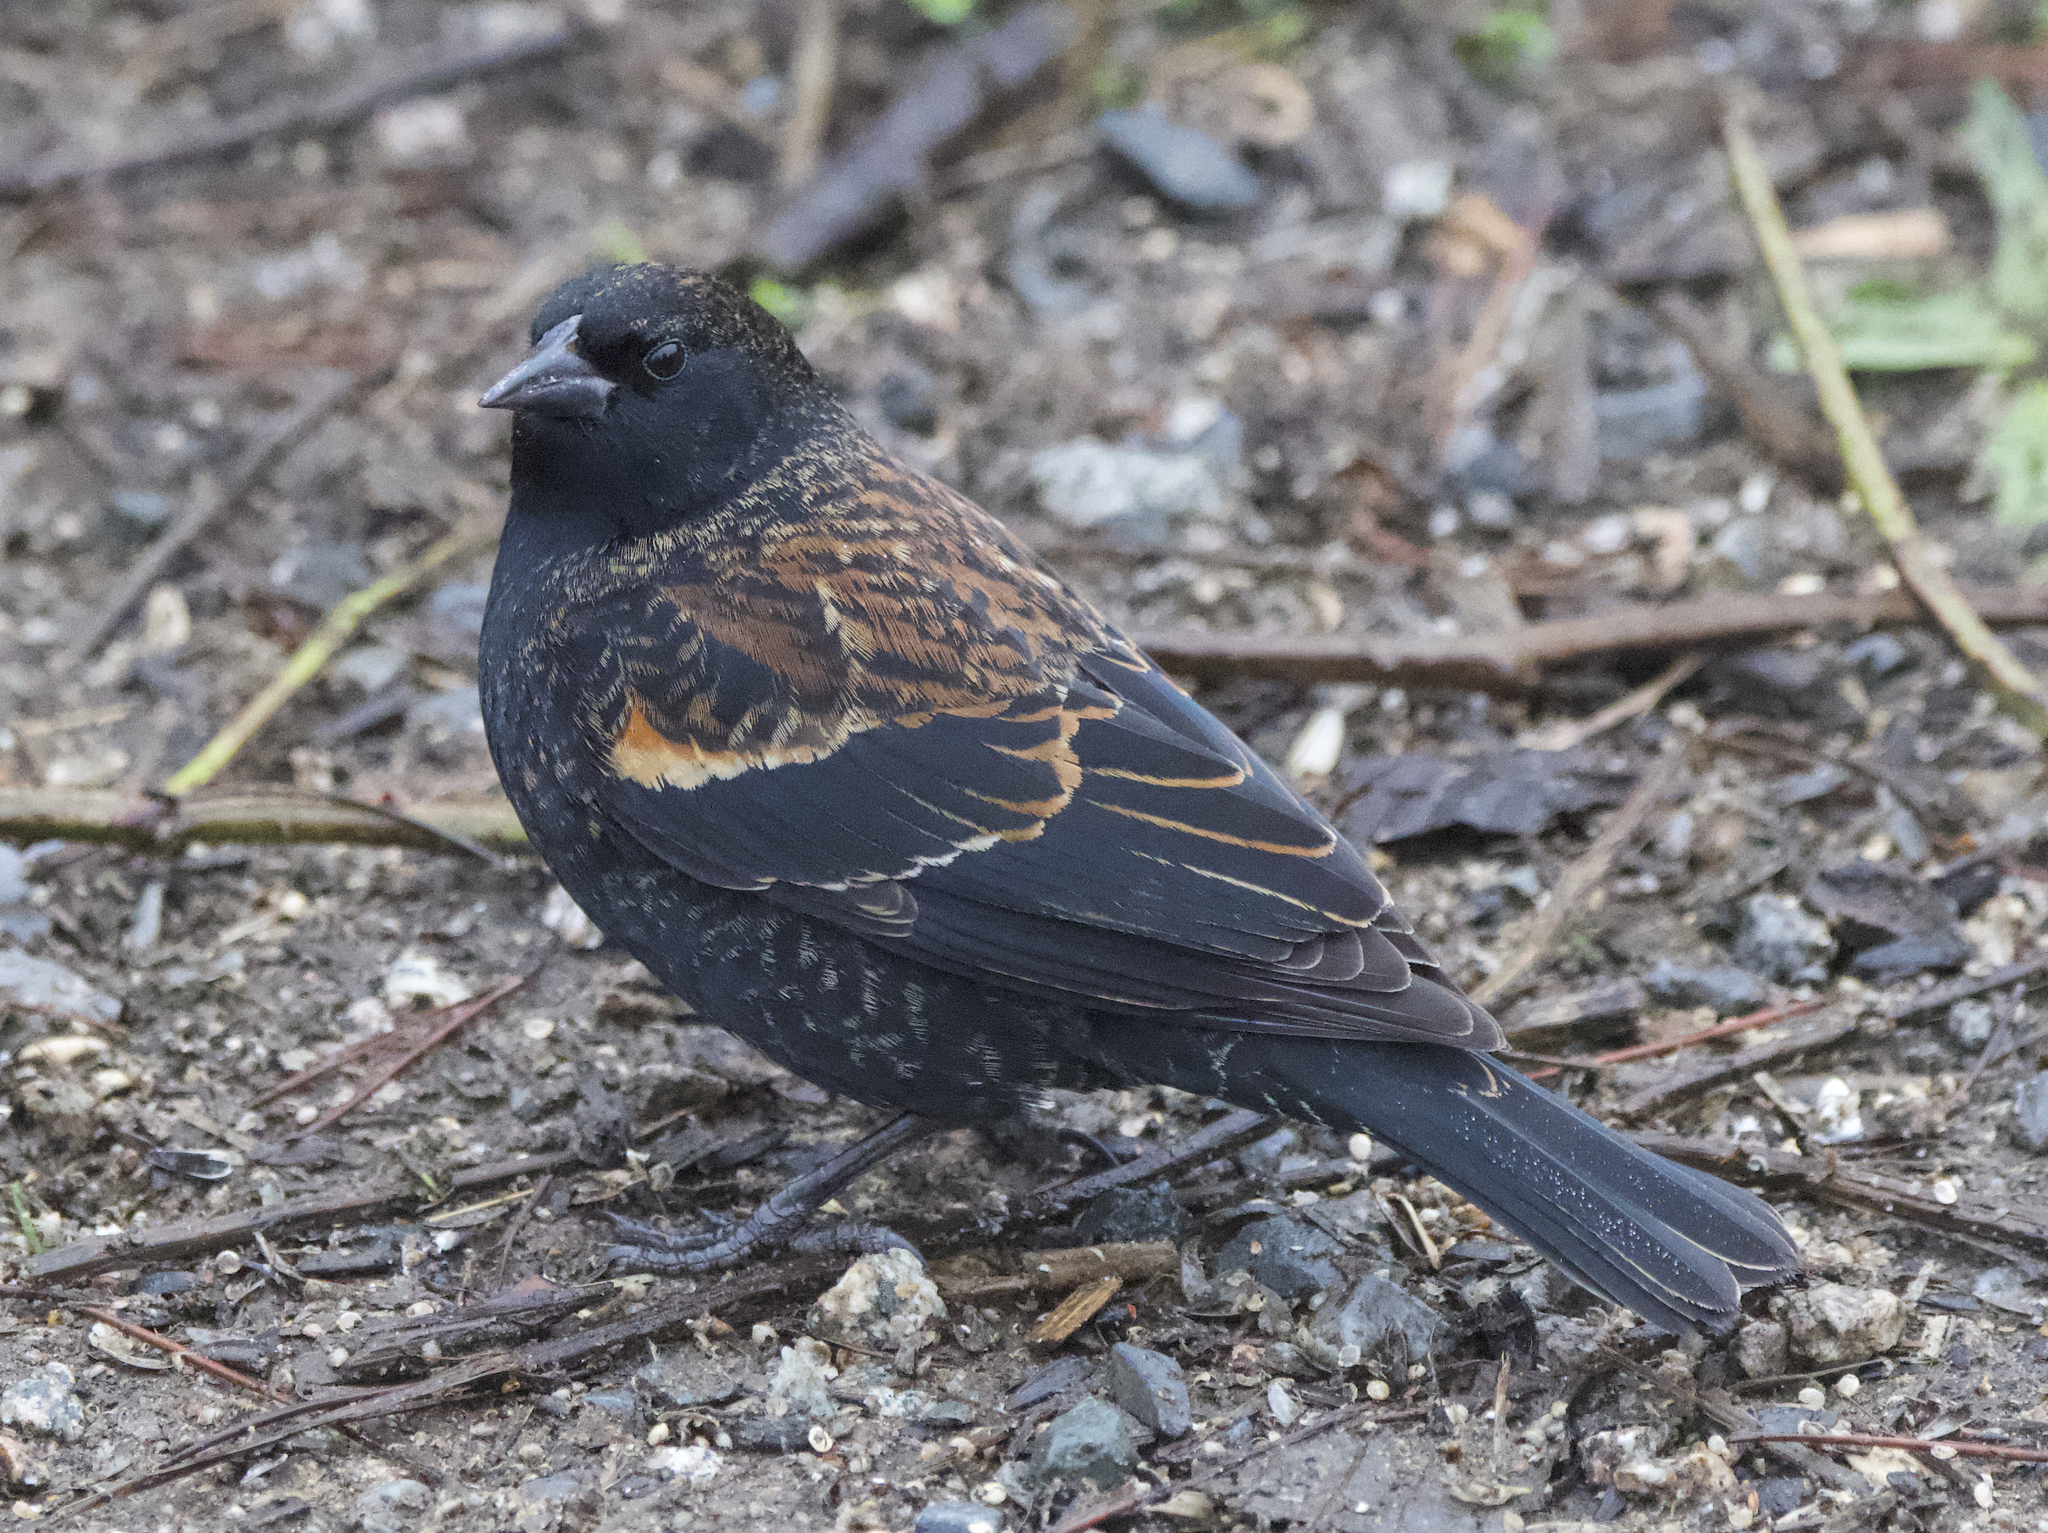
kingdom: Animalia
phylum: Chordata
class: Aves
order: Passeriformes
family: Icteridae
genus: Agelaius
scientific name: Agelaius phoeniceus
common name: Red-winged blackbird
